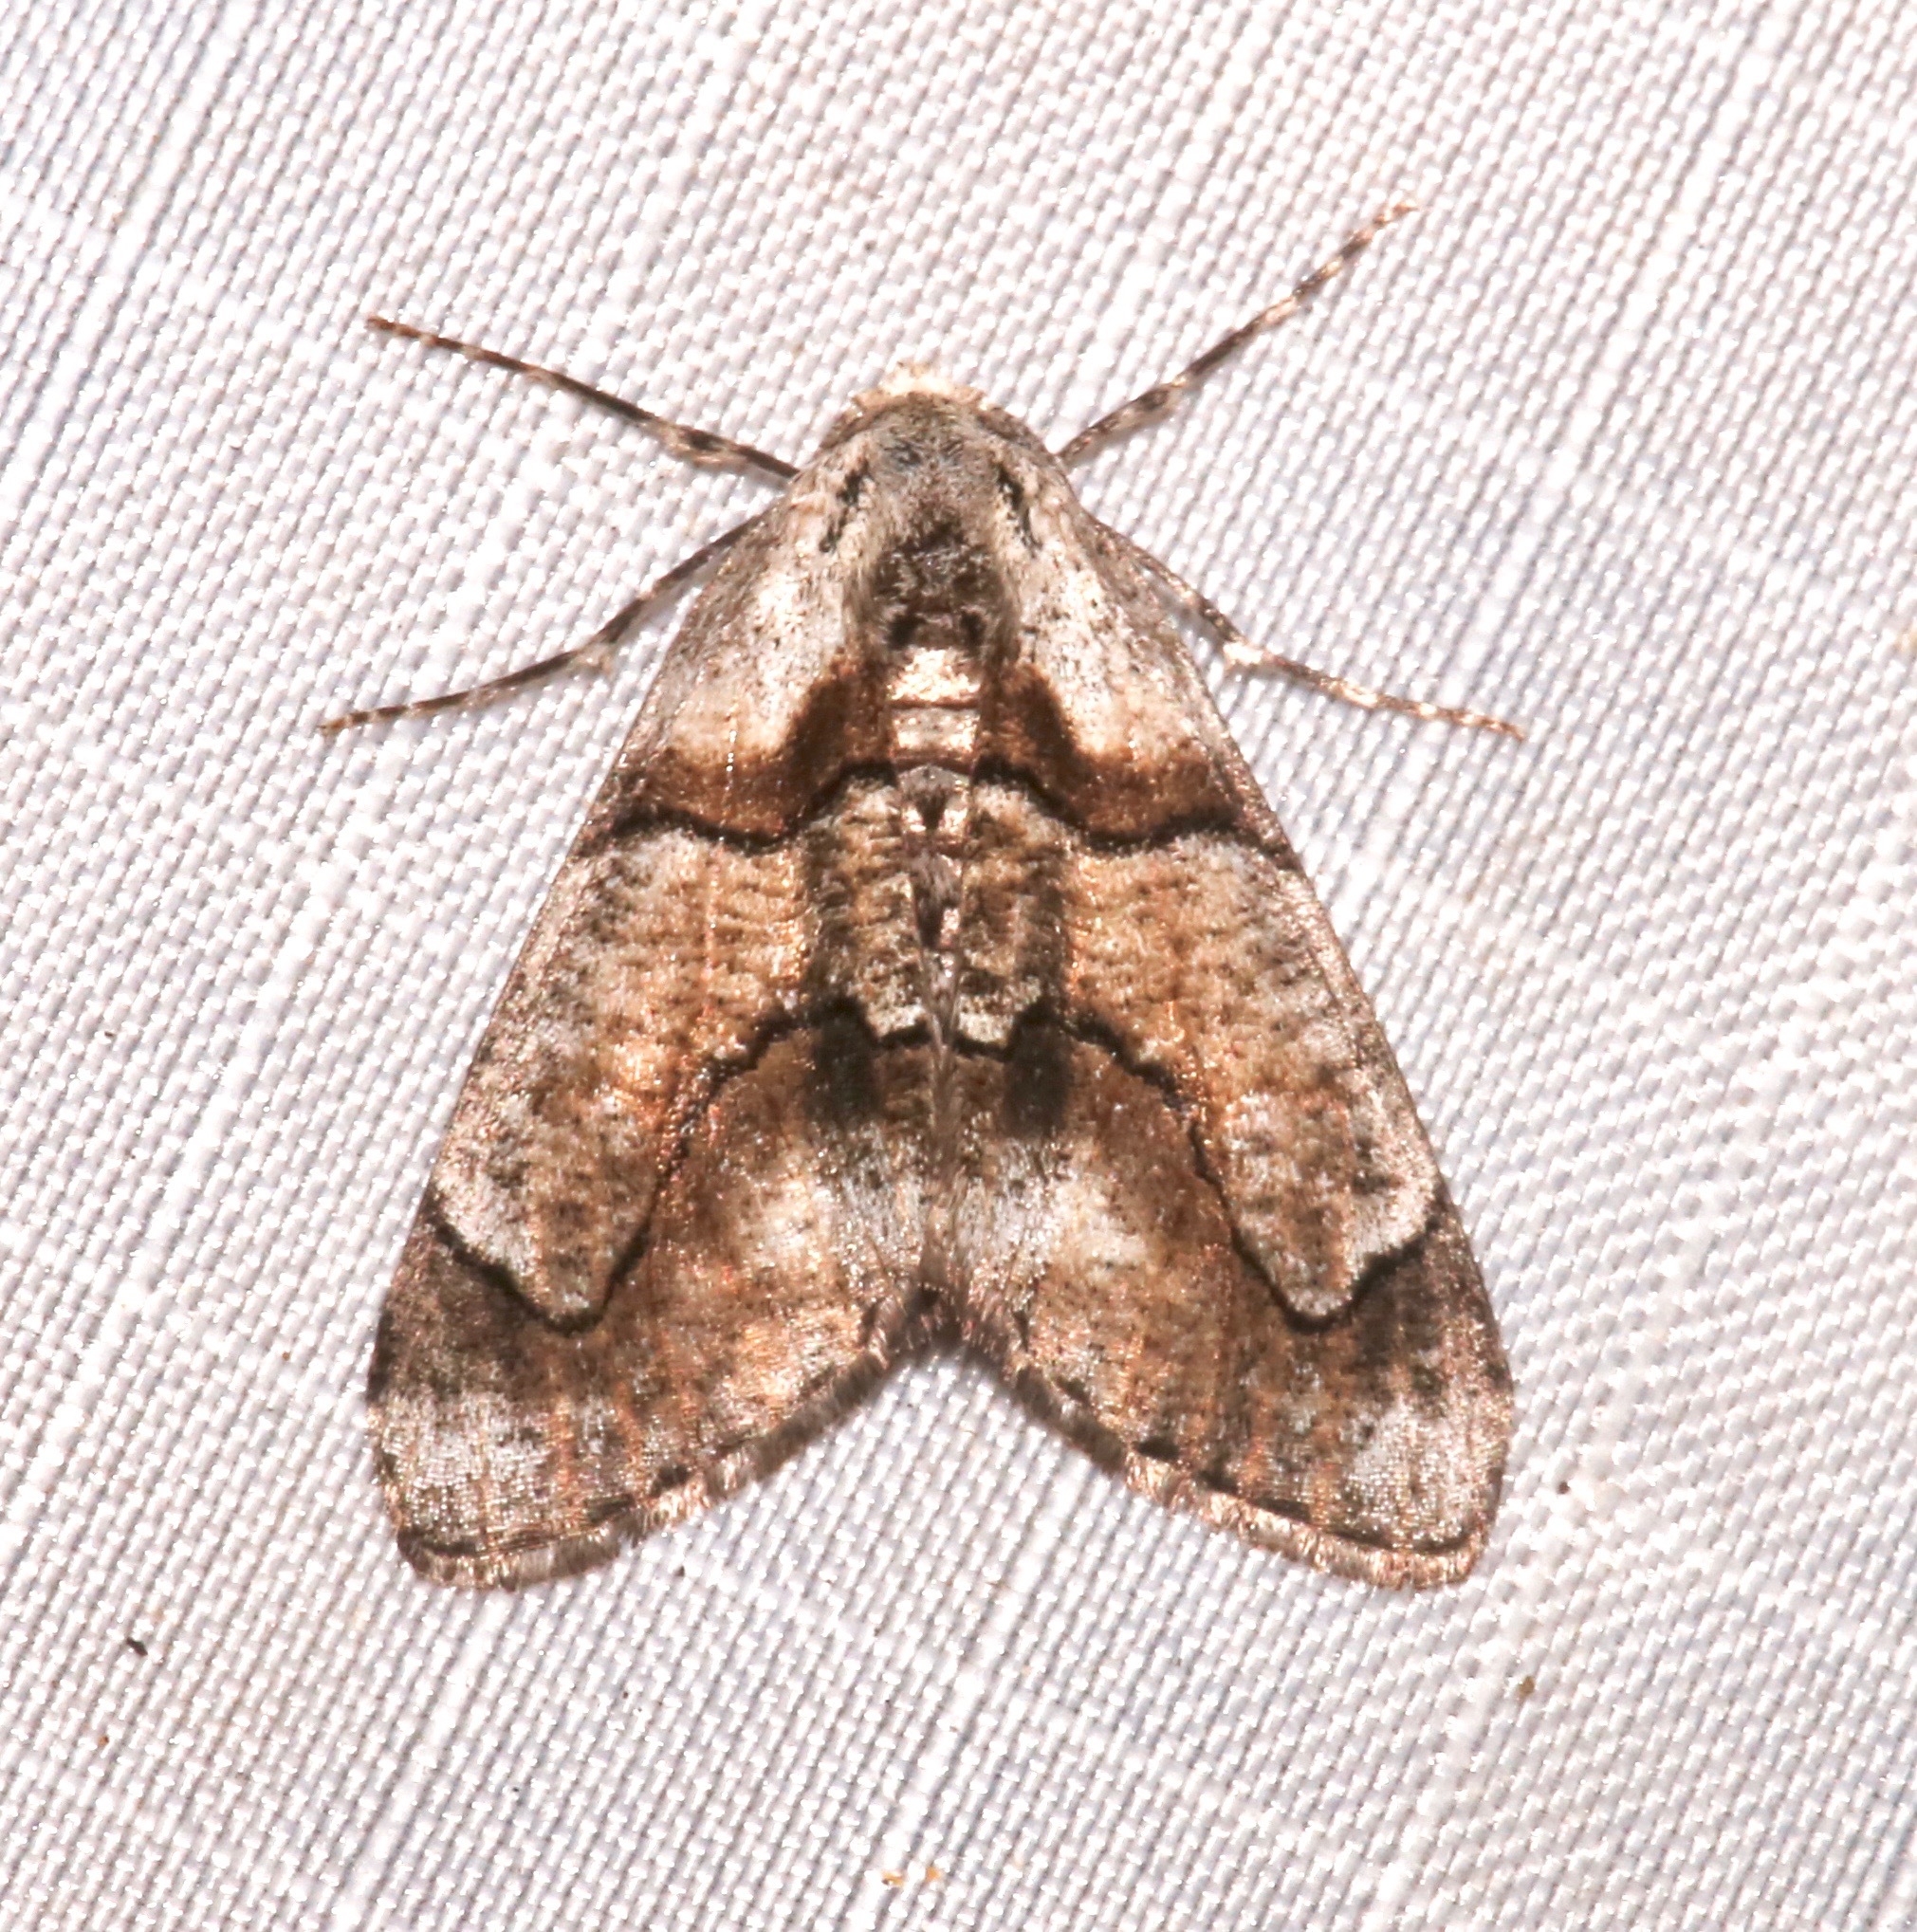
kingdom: Animalia
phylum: Arthropoda
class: Insecta
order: Lepidoptera
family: Geometridae
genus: Gabriola
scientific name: Gabriola regularia
